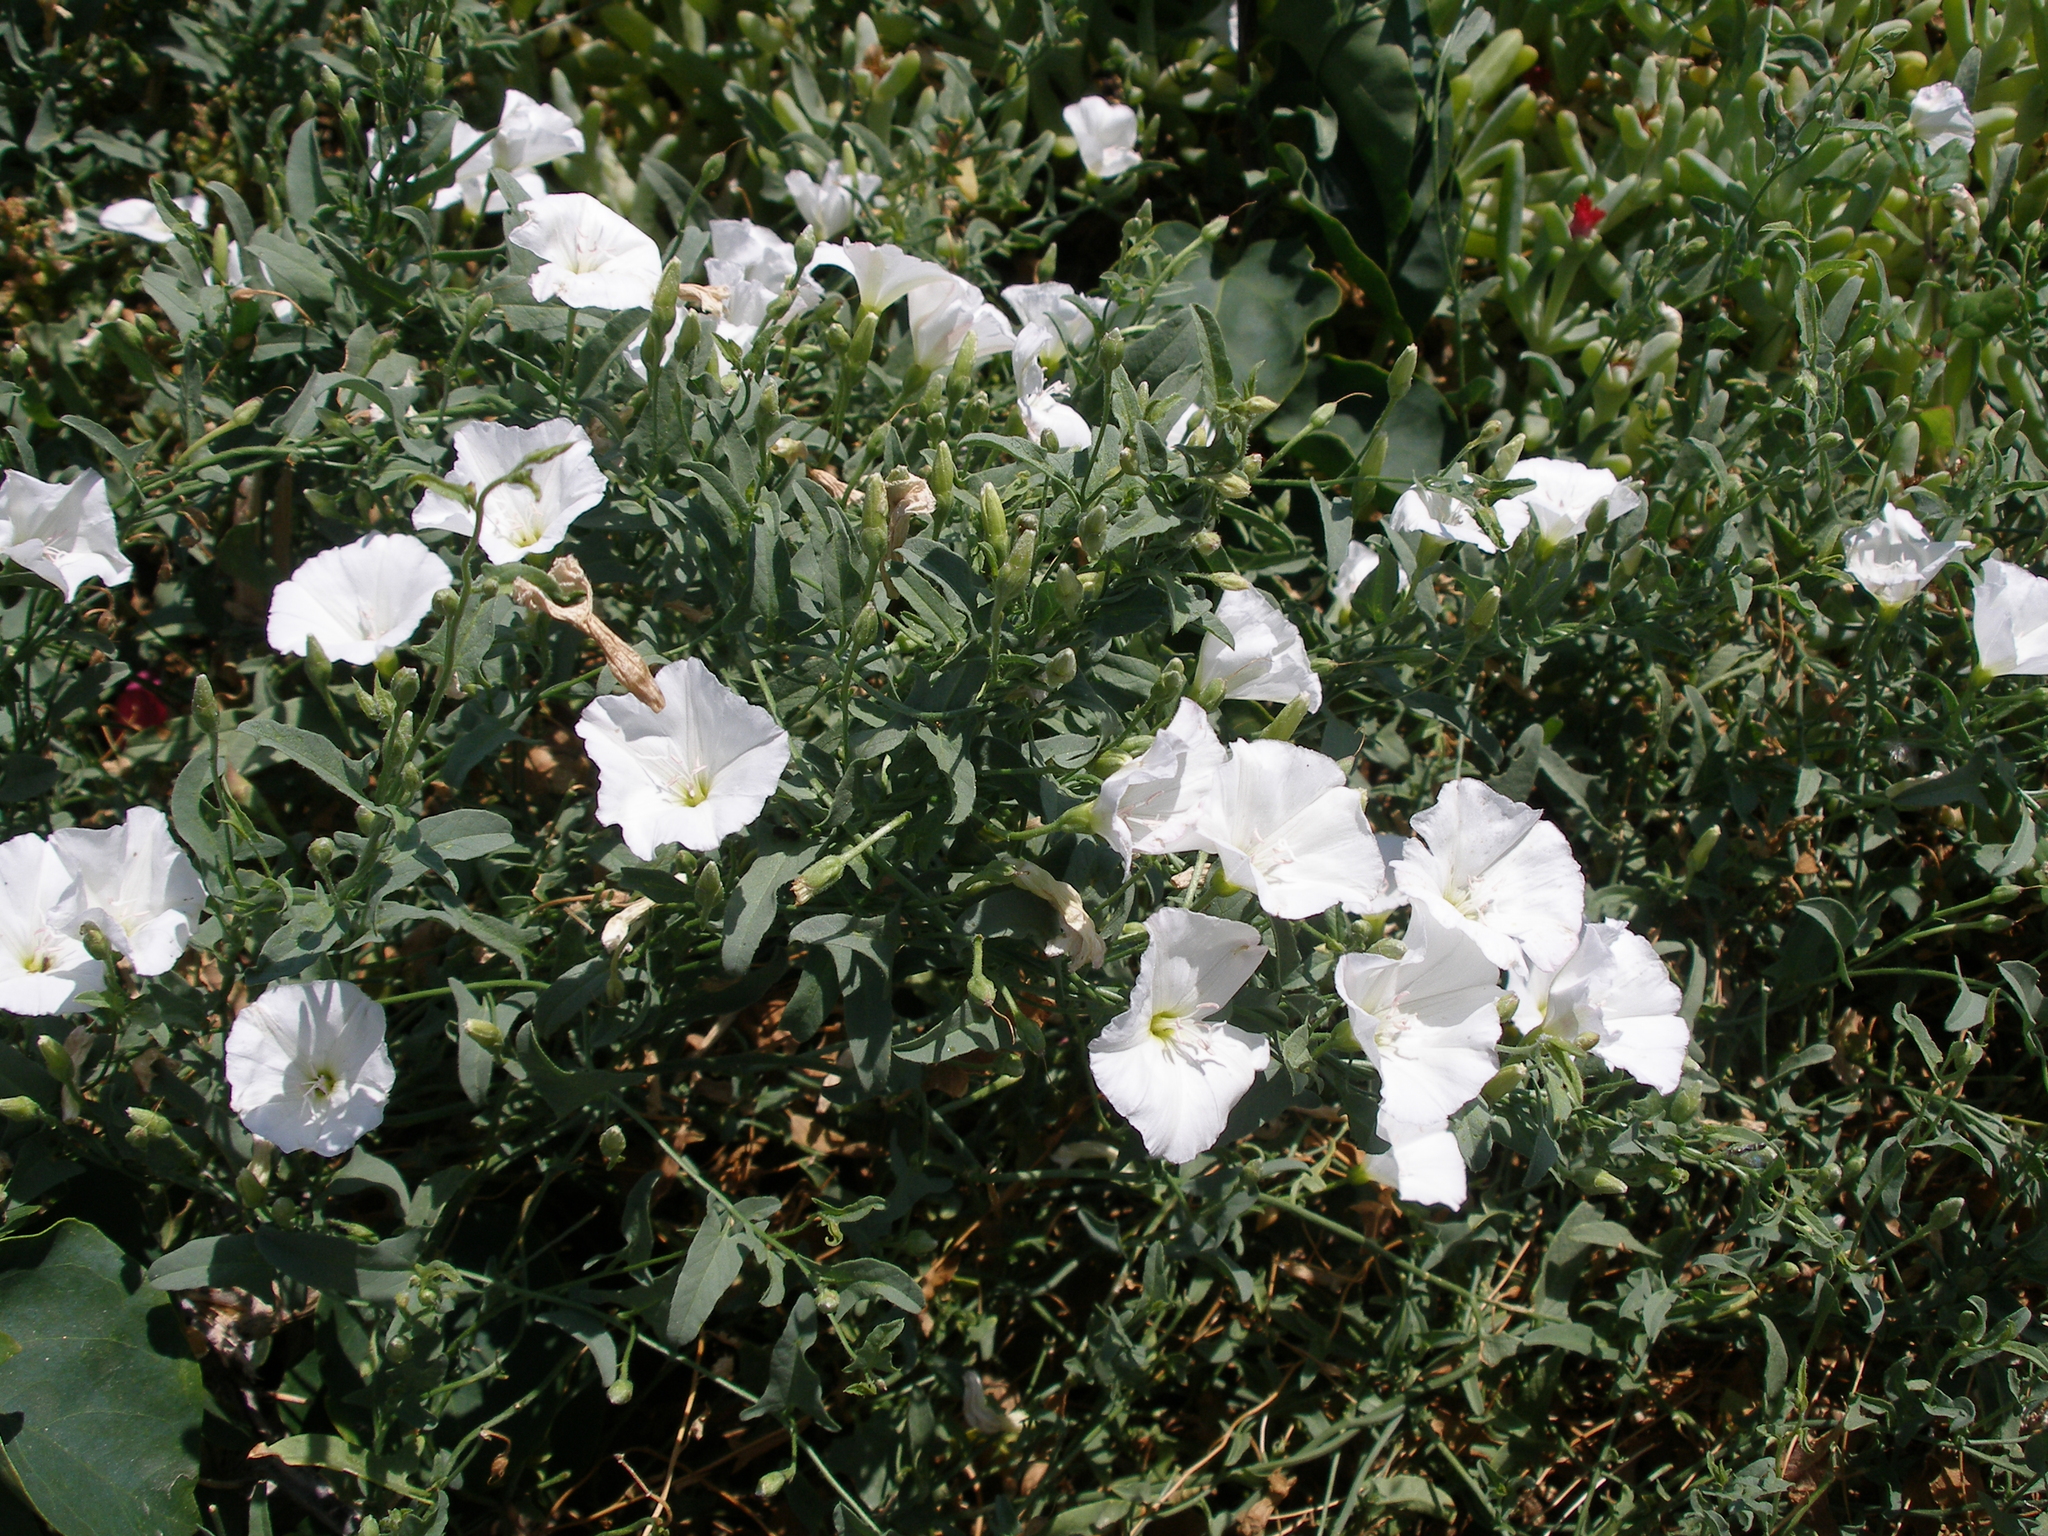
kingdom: Plantae
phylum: Tracheophyta
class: Magnoliopsida
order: Solanales
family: Convolvulaceae
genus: Convolvulus
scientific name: Convolvulus arvensis
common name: Field bindweed
